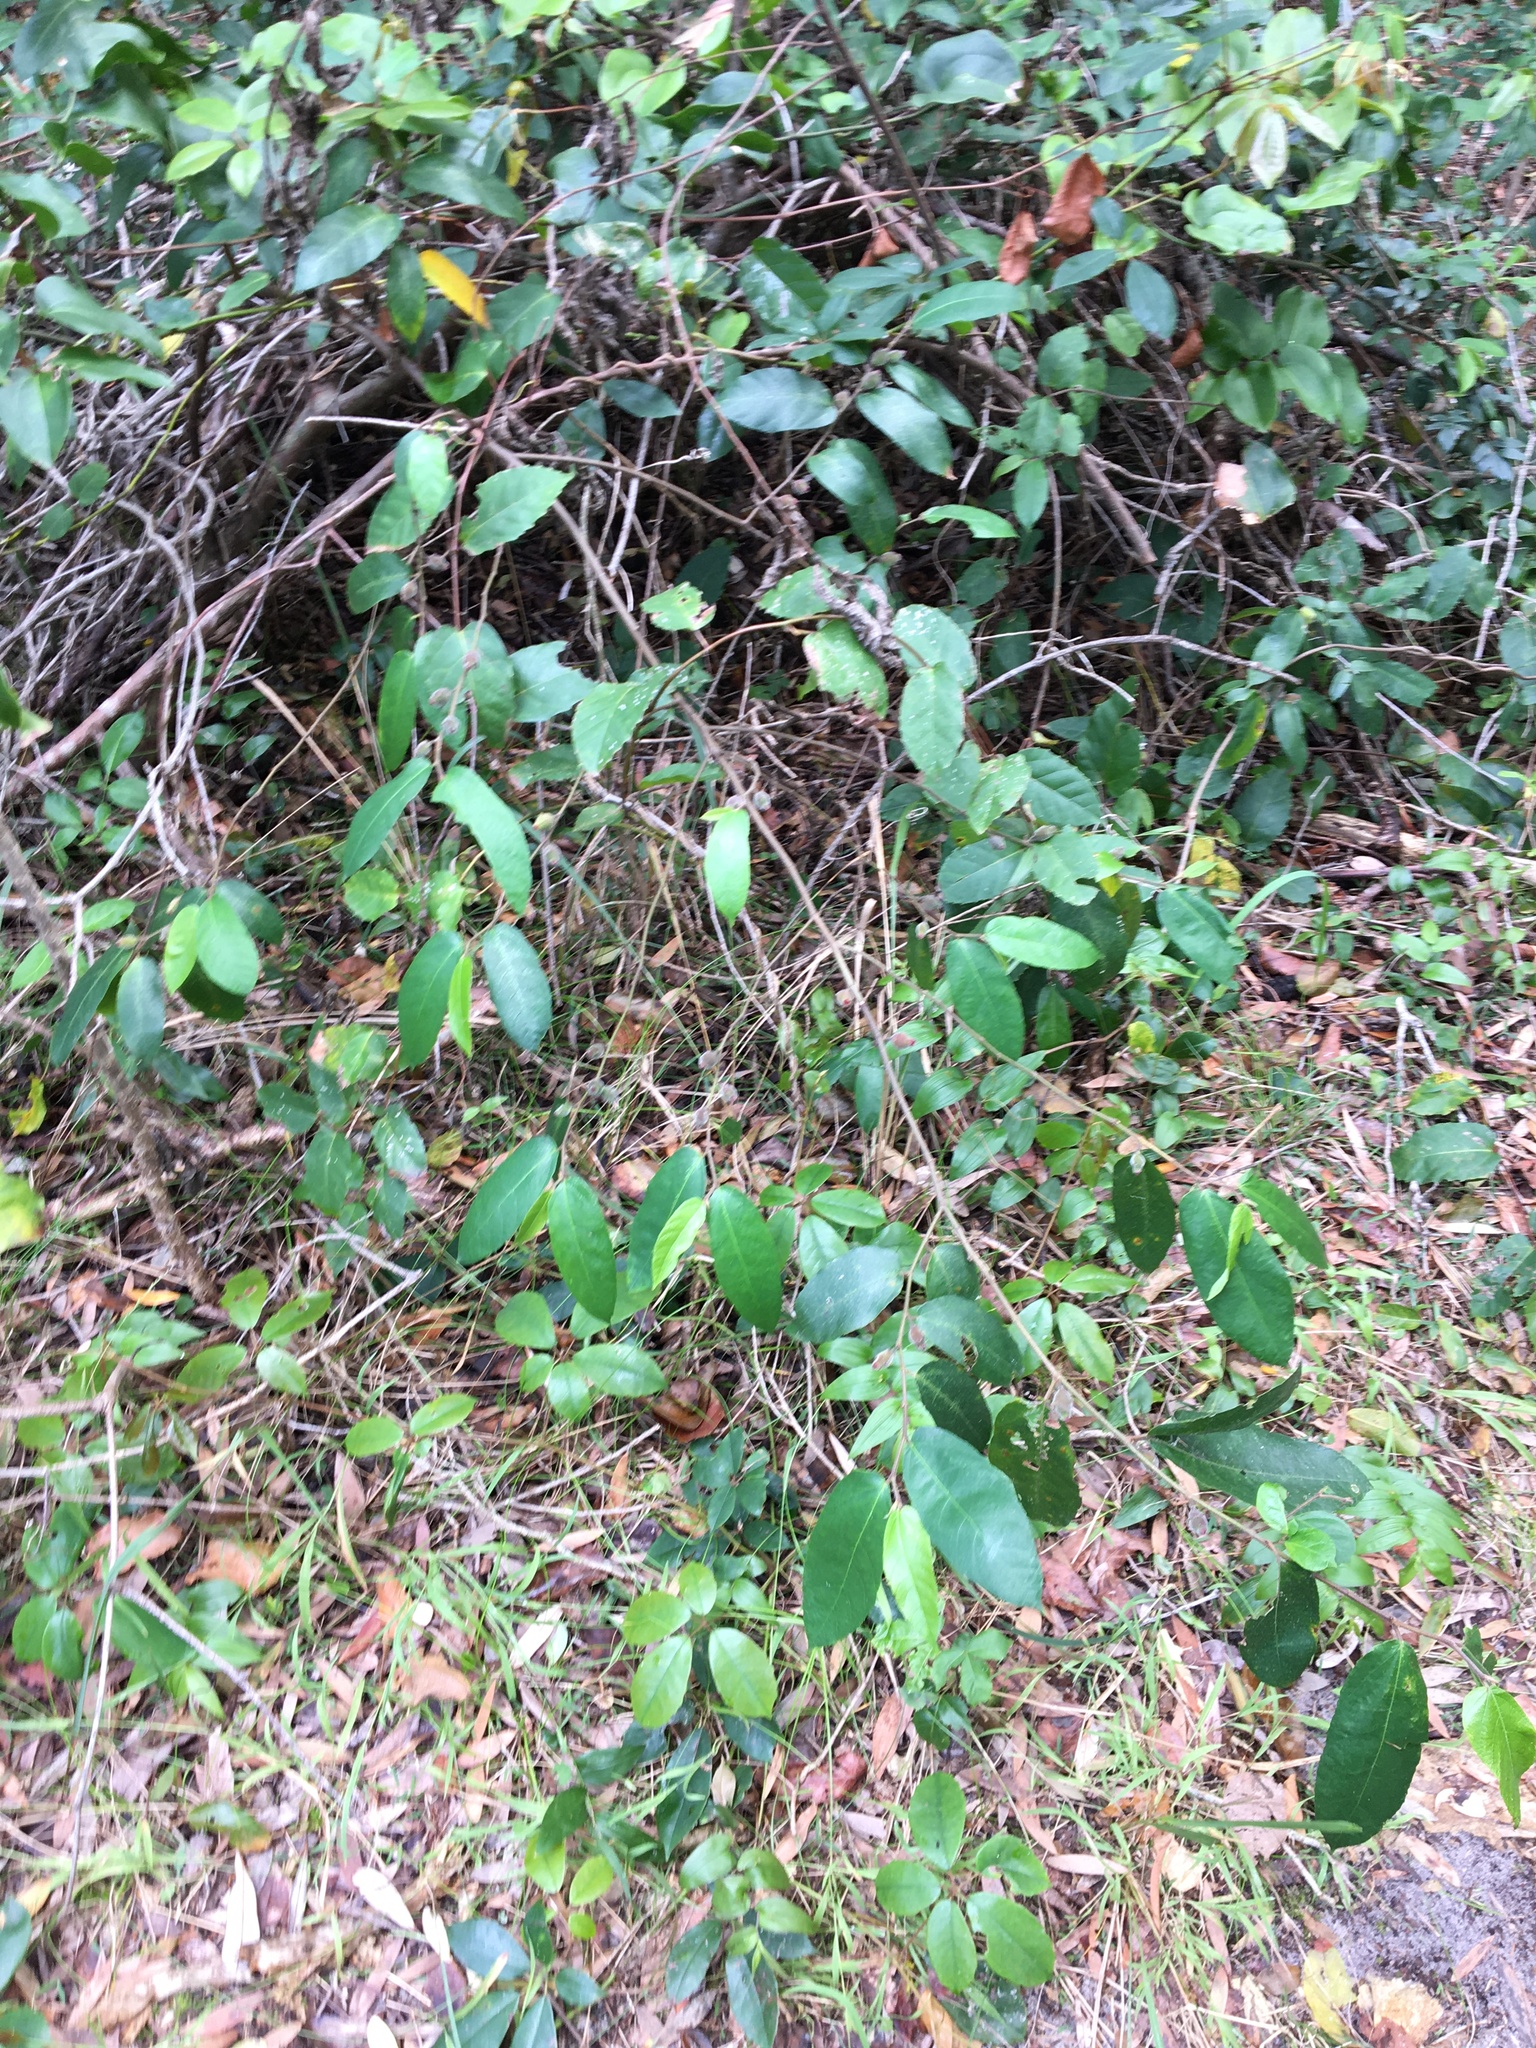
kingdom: Plantae
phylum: Tracheophyta
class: Magnoliopsida
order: Rosales
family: Moraceae
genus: Ficus
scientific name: Ficus coronata
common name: Creek sandpaper fig
